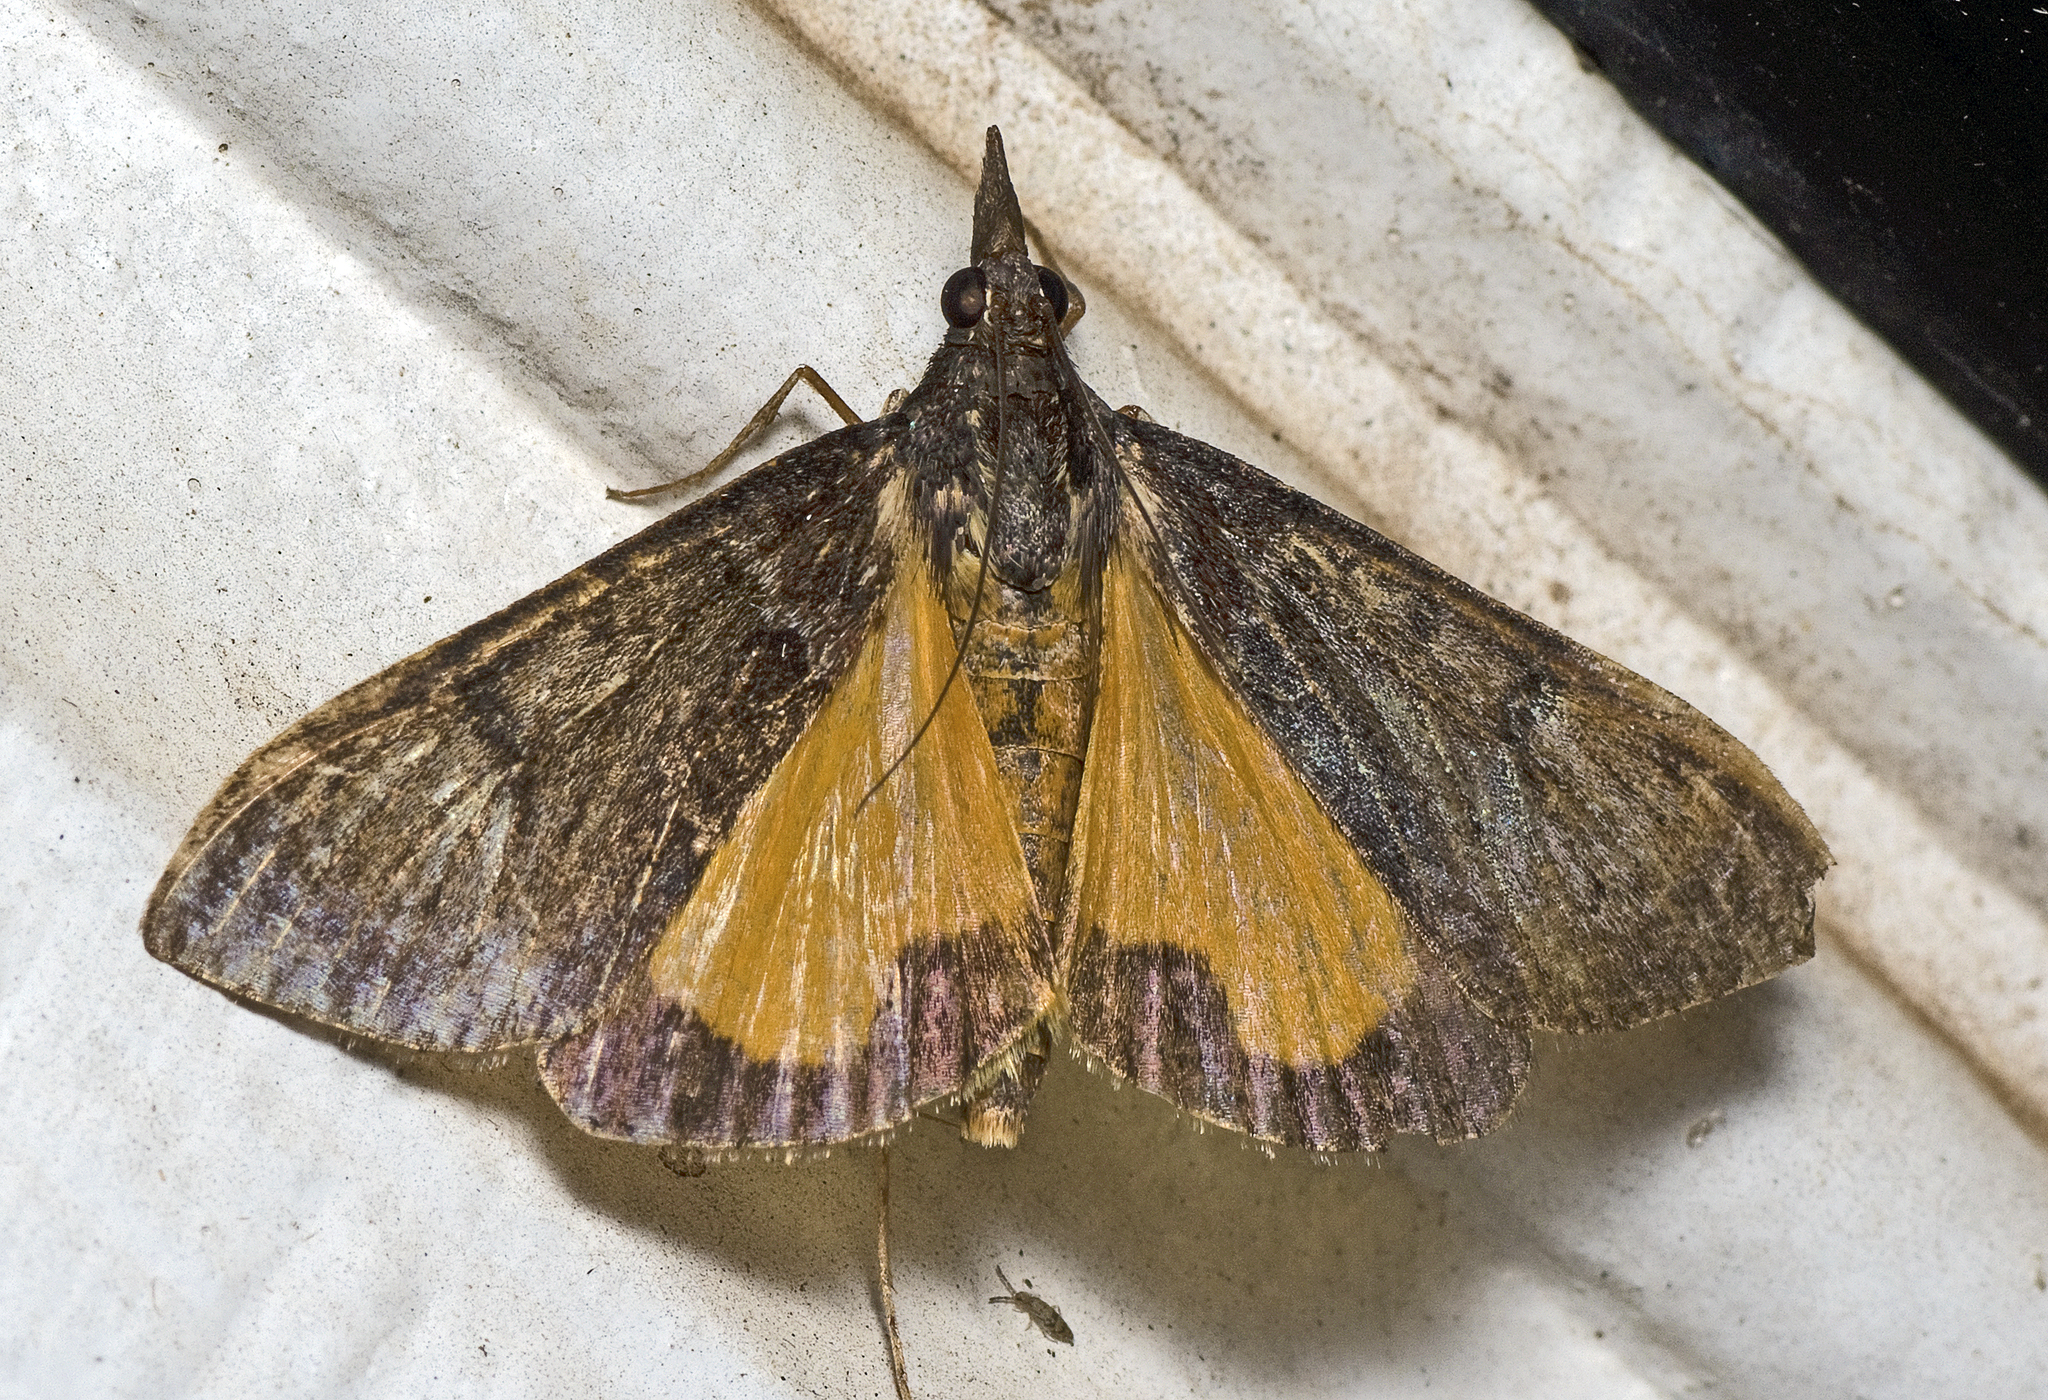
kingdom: Animalia
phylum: Arthropoda
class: Insecta
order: Lepidoptera
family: Crambidae
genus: Uresiphita
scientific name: Uresiphita ornithopteralis
